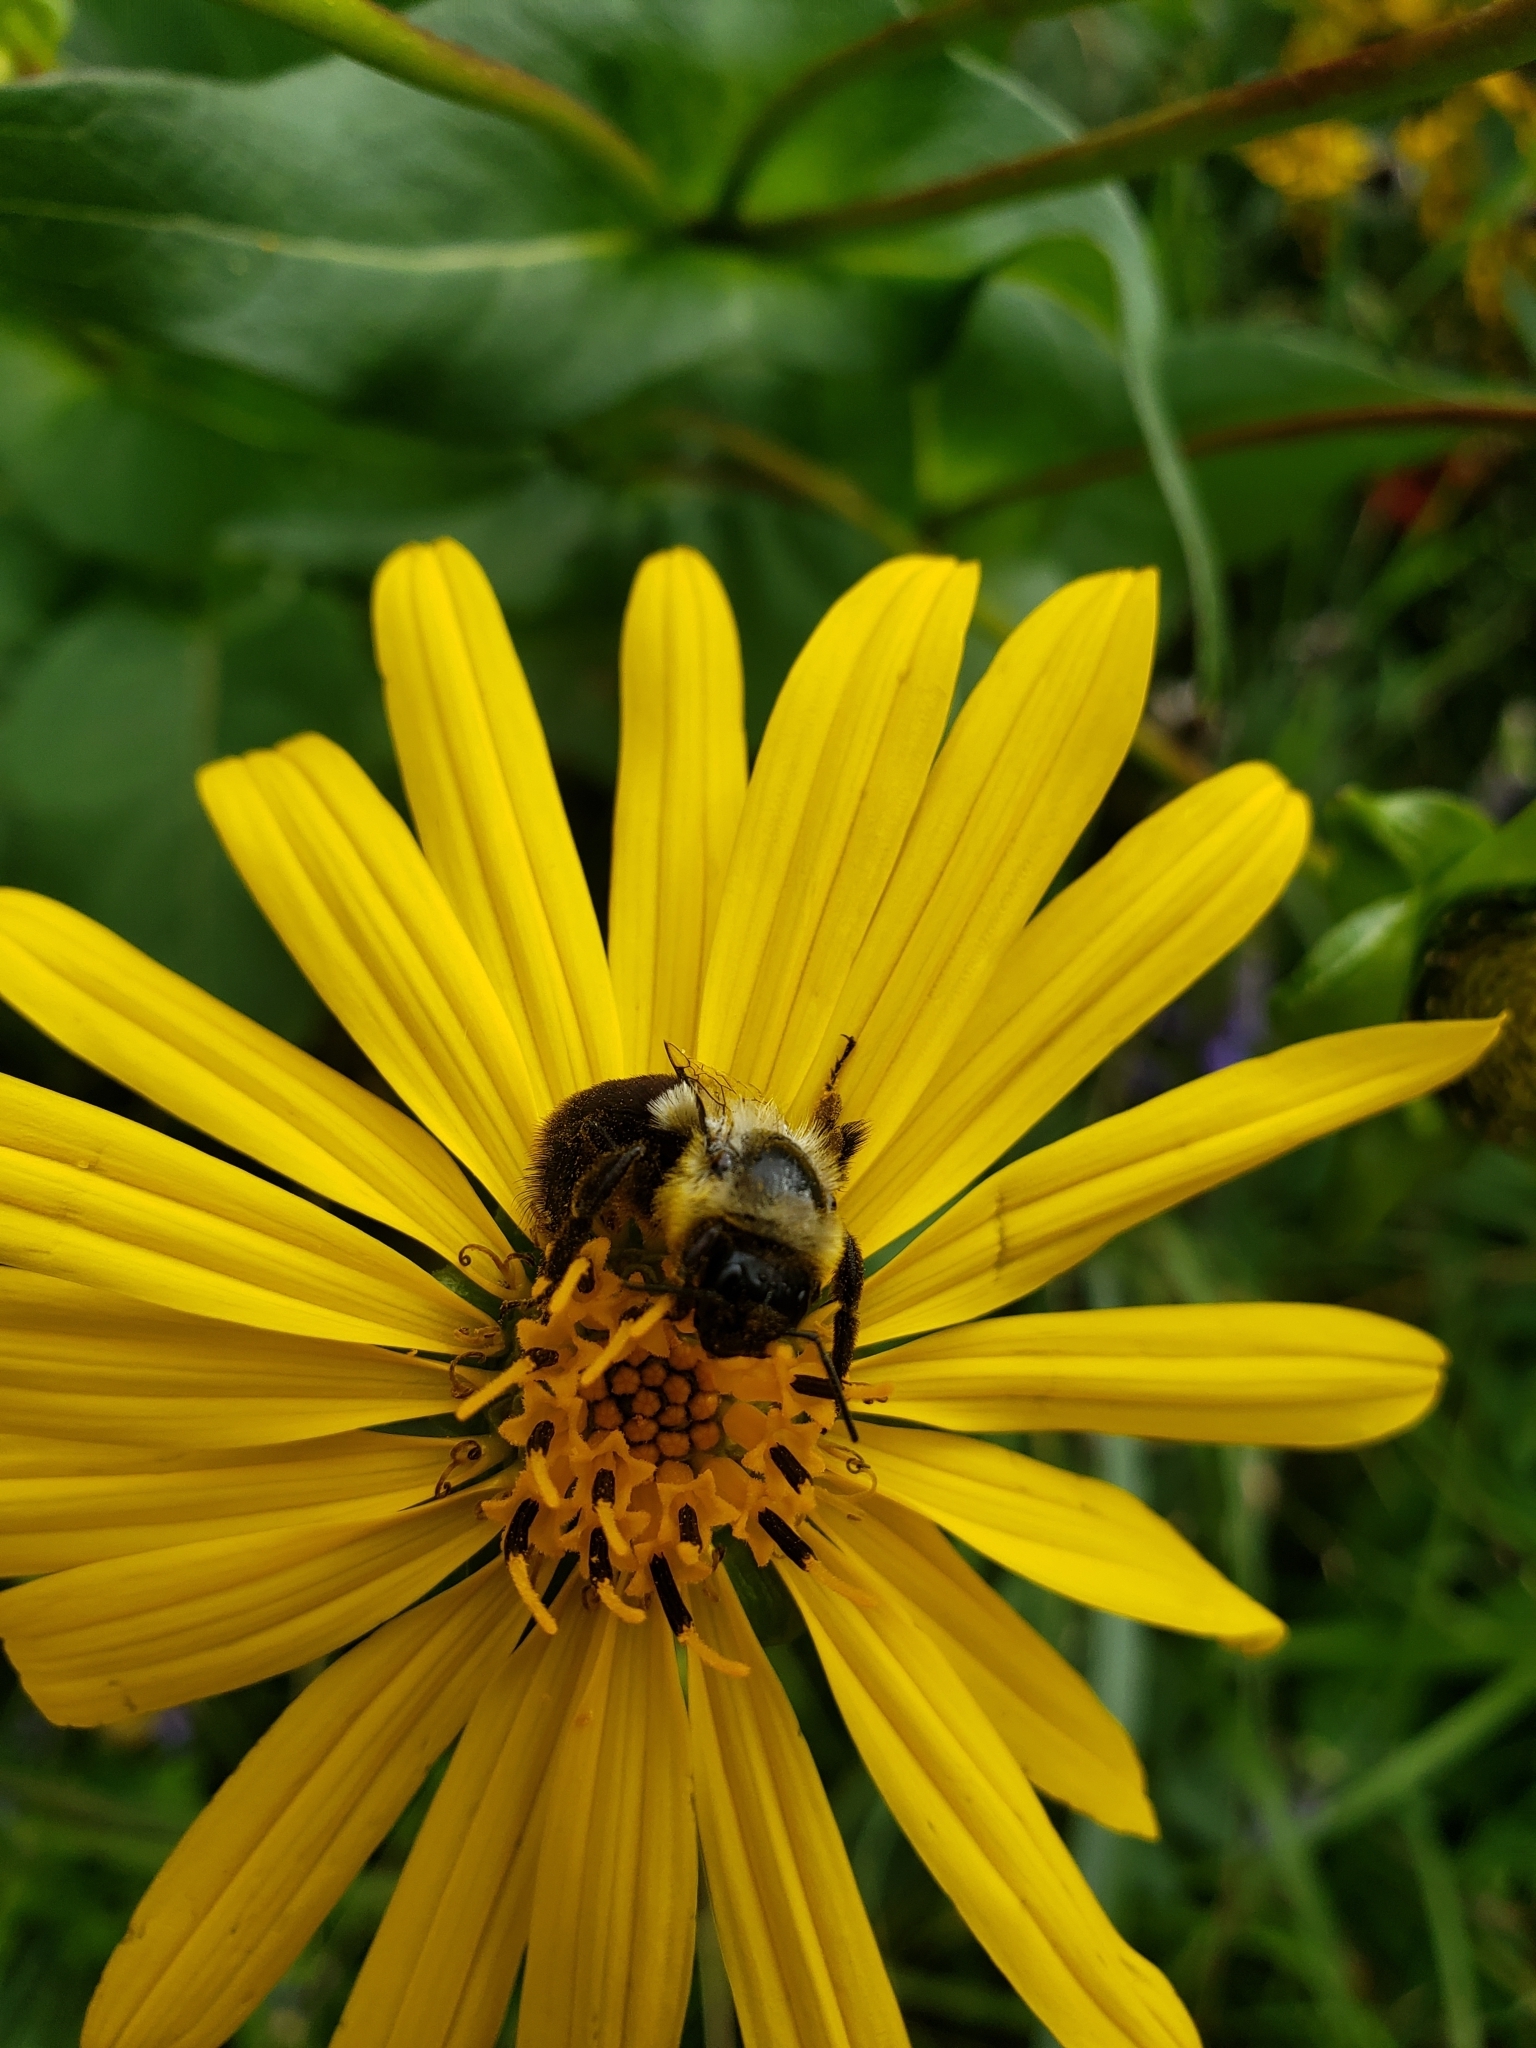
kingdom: Animalia
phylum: Arthropoda
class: Insecta
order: Hymenoptera
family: Apidae
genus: Bombus
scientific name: Bombus impatiens
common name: Common eastern bumble bee
